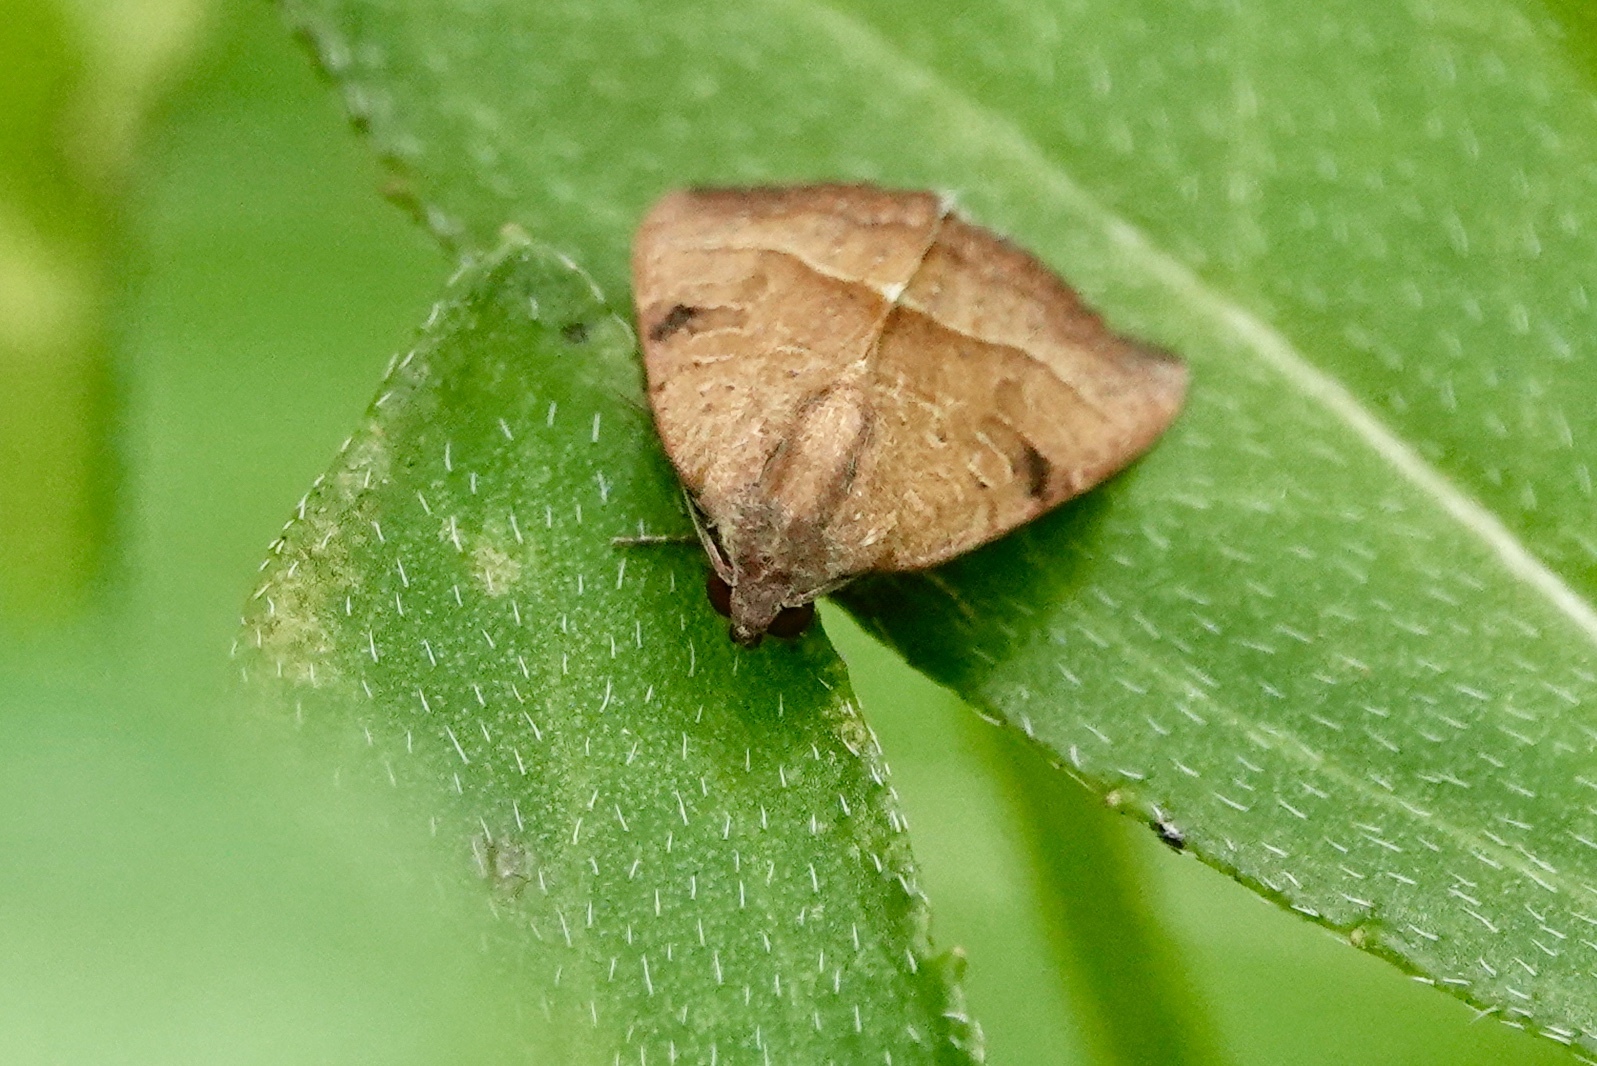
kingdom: Animalia
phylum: Arthropoda
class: Insecta
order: Lepidoptera
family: Noctuidae
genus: Galgula
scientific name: Galgula partita
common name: Wedgeling
